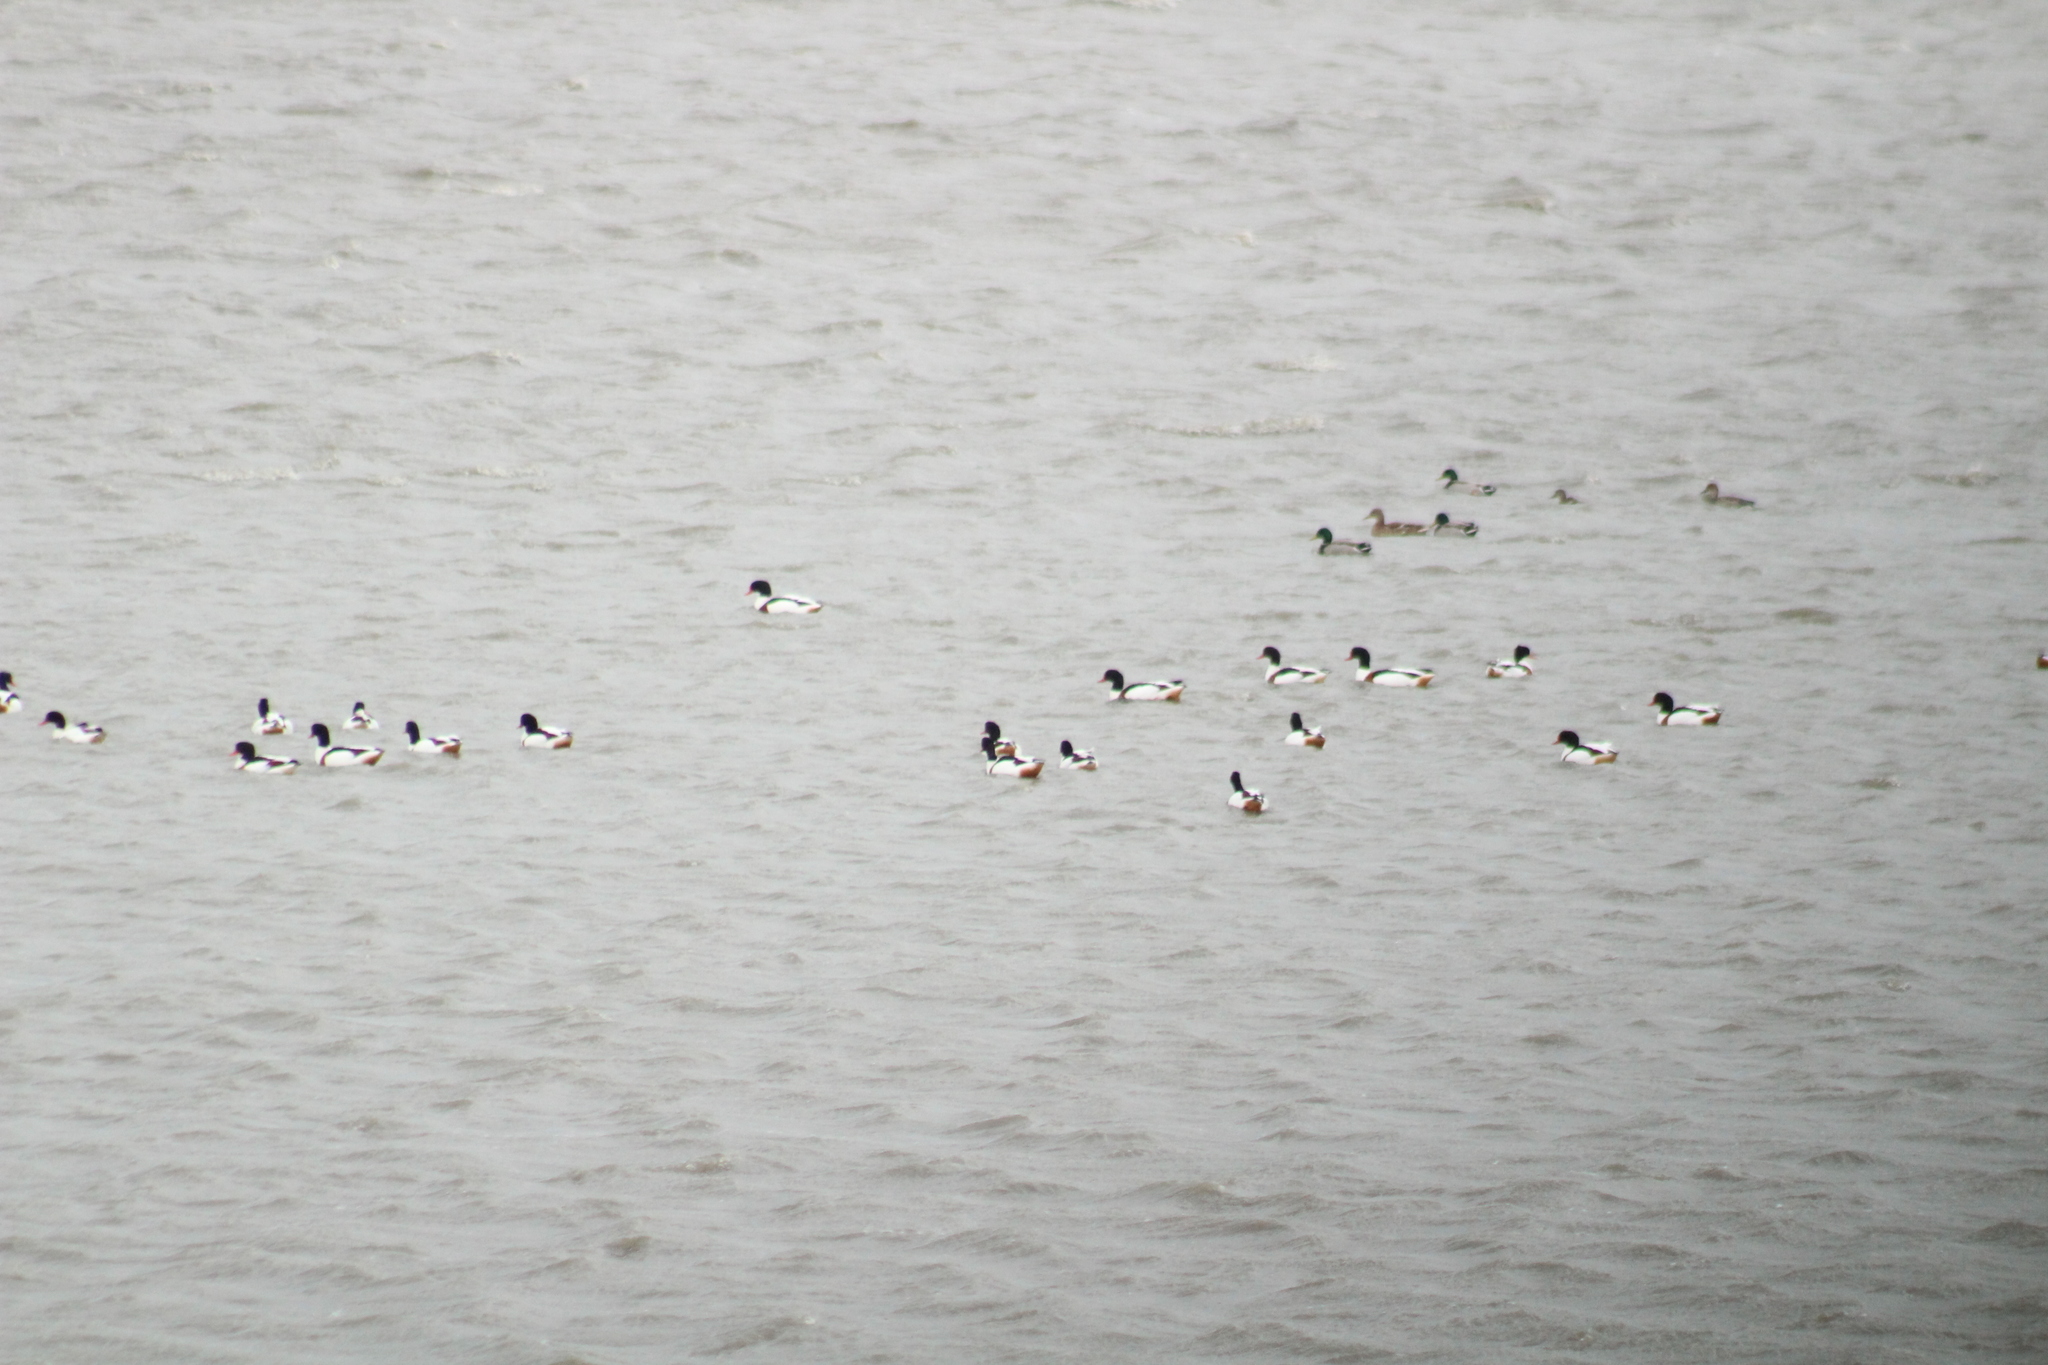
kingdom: Animalia
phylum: Chordata
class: Aves
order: Anseriformes
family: Anatidae
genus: Tadorna
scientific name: Tadorna tadorna
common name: Common shelduck
